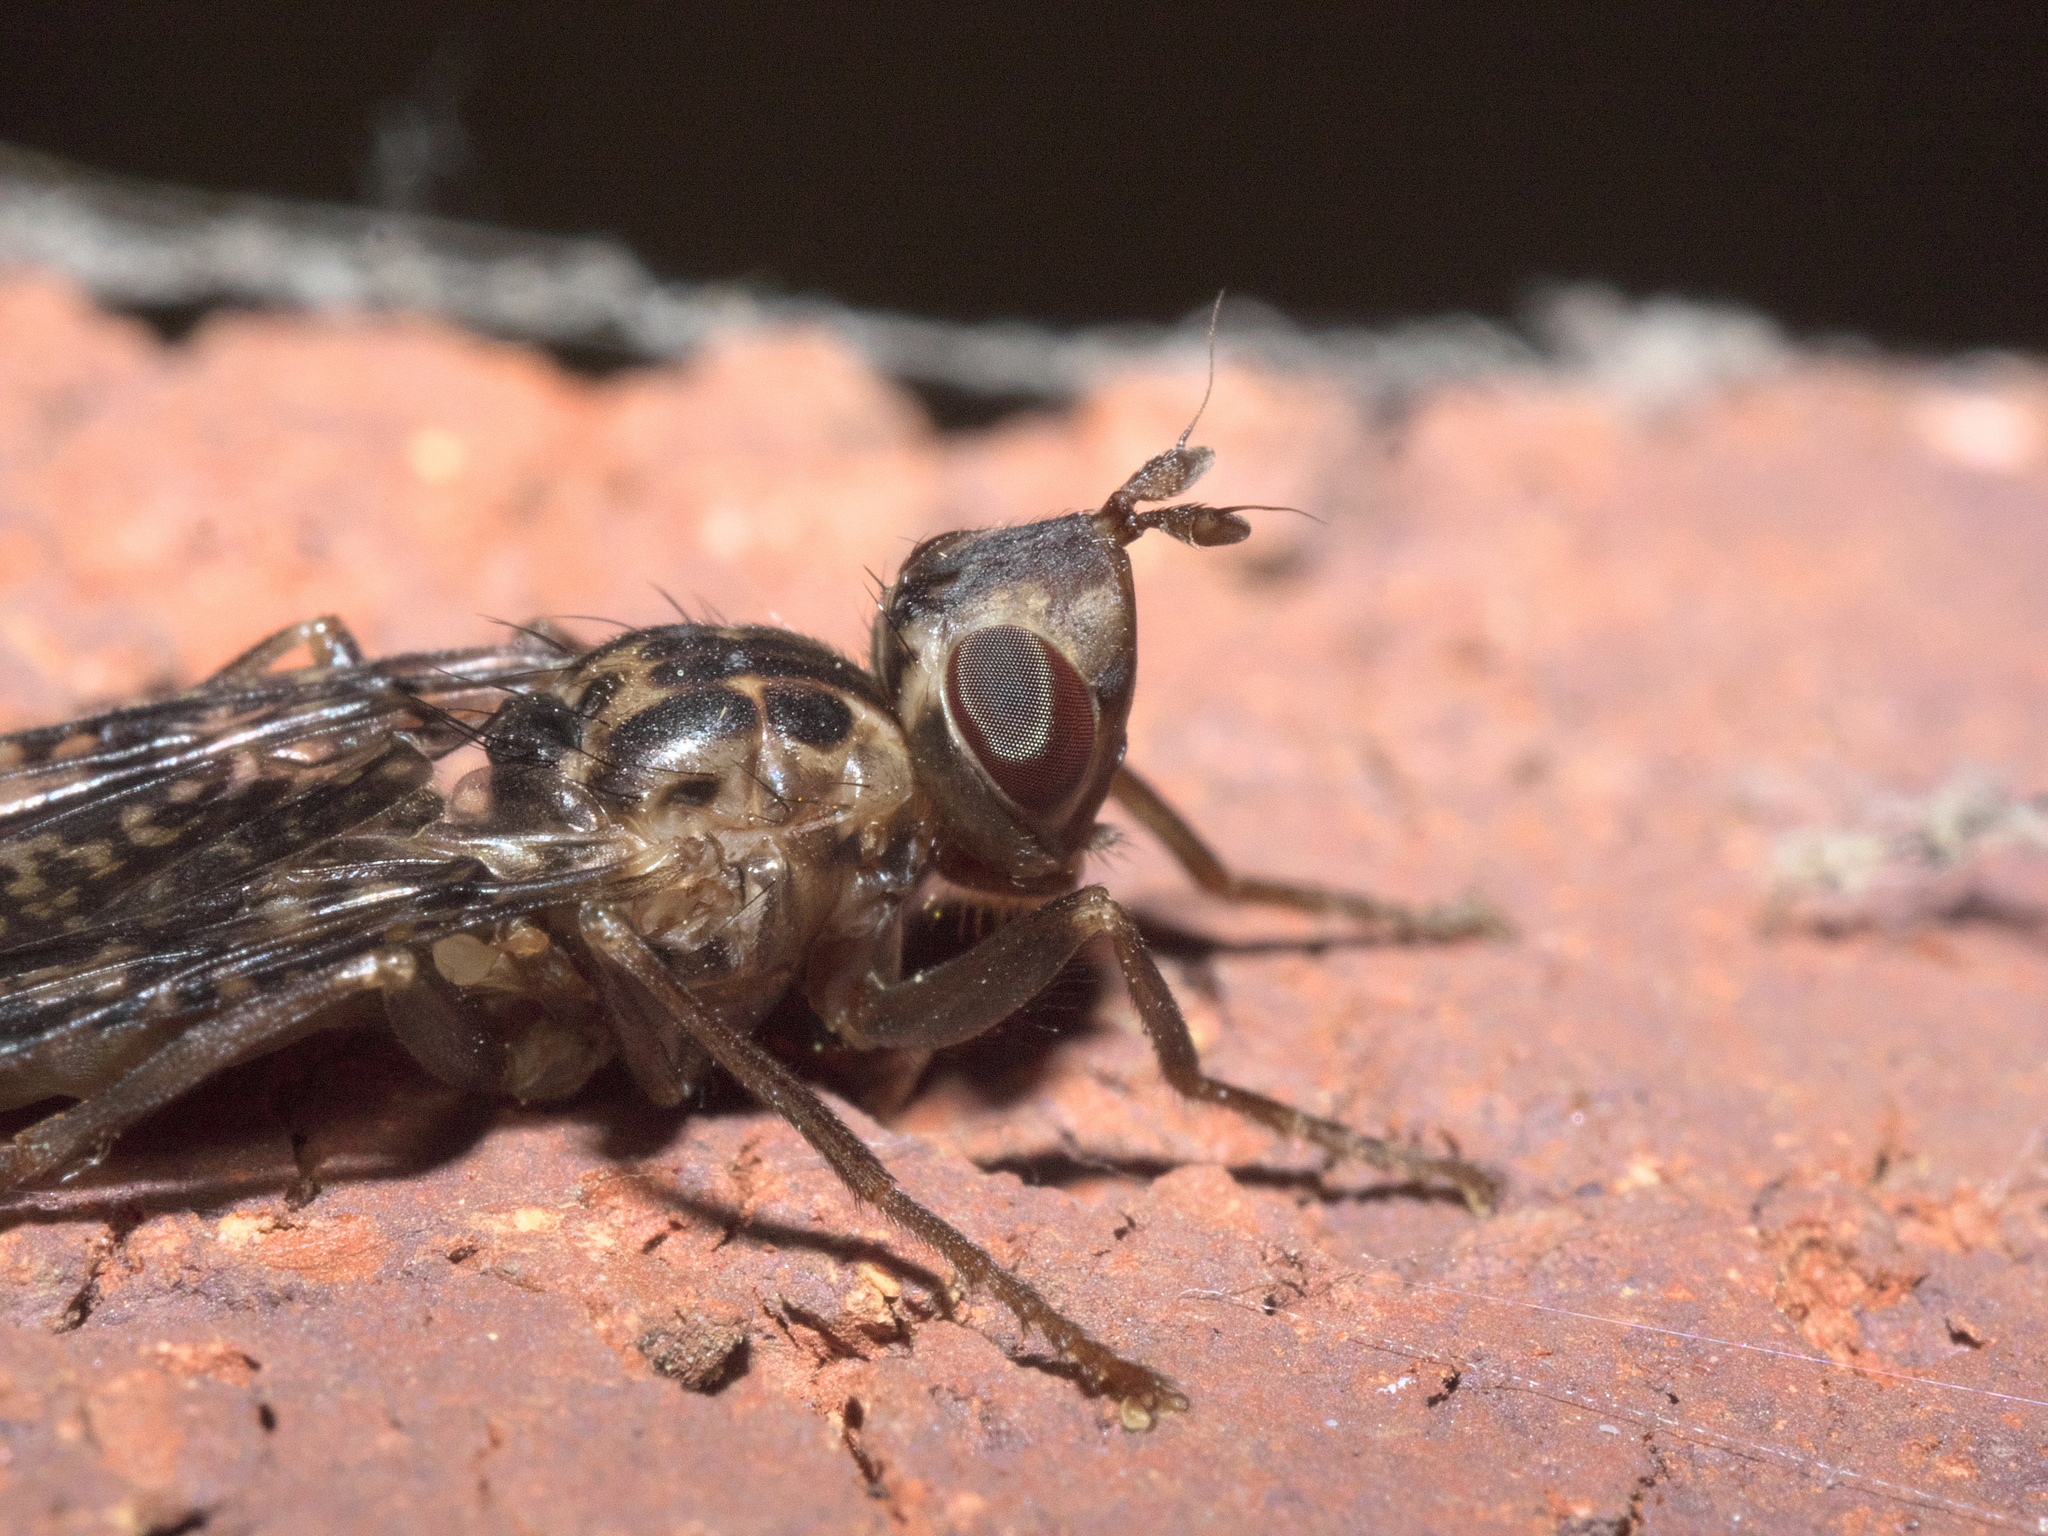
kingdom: Animalia
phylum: Arthropoda
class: Insecta
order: Diptera
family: Pyrgotidae
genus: Pyrgota
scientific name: Pyrgota valida
